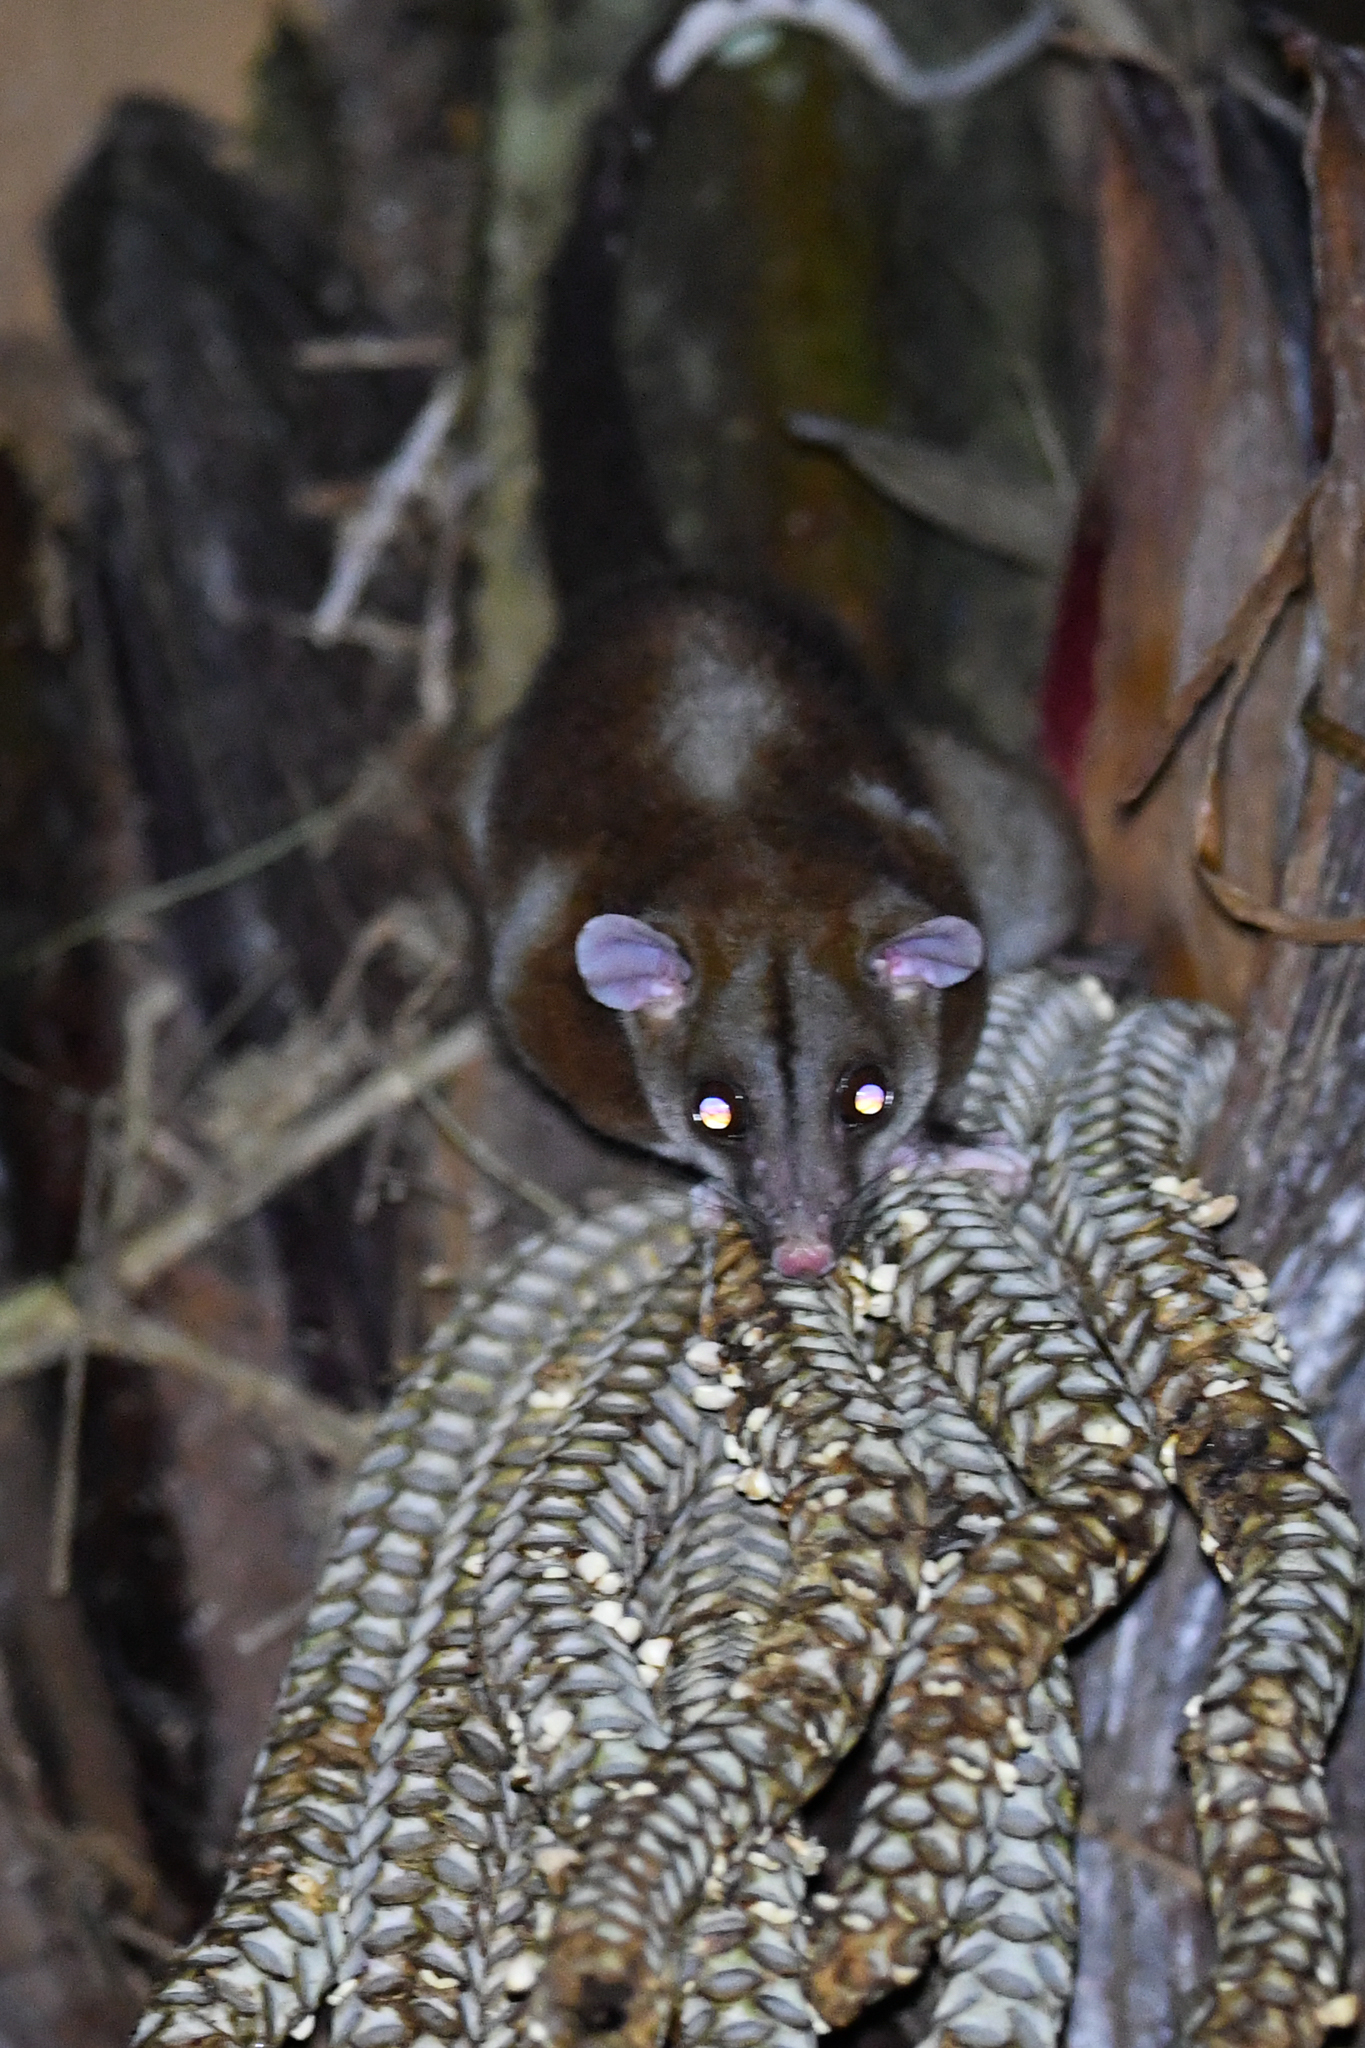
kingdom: Animalia
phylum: Chordata
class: Mammalia
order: Didelphimorphia
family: Didelphidae
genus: Caluromys
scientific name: Caluromys derbianus
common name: Derby's woolly opossum
